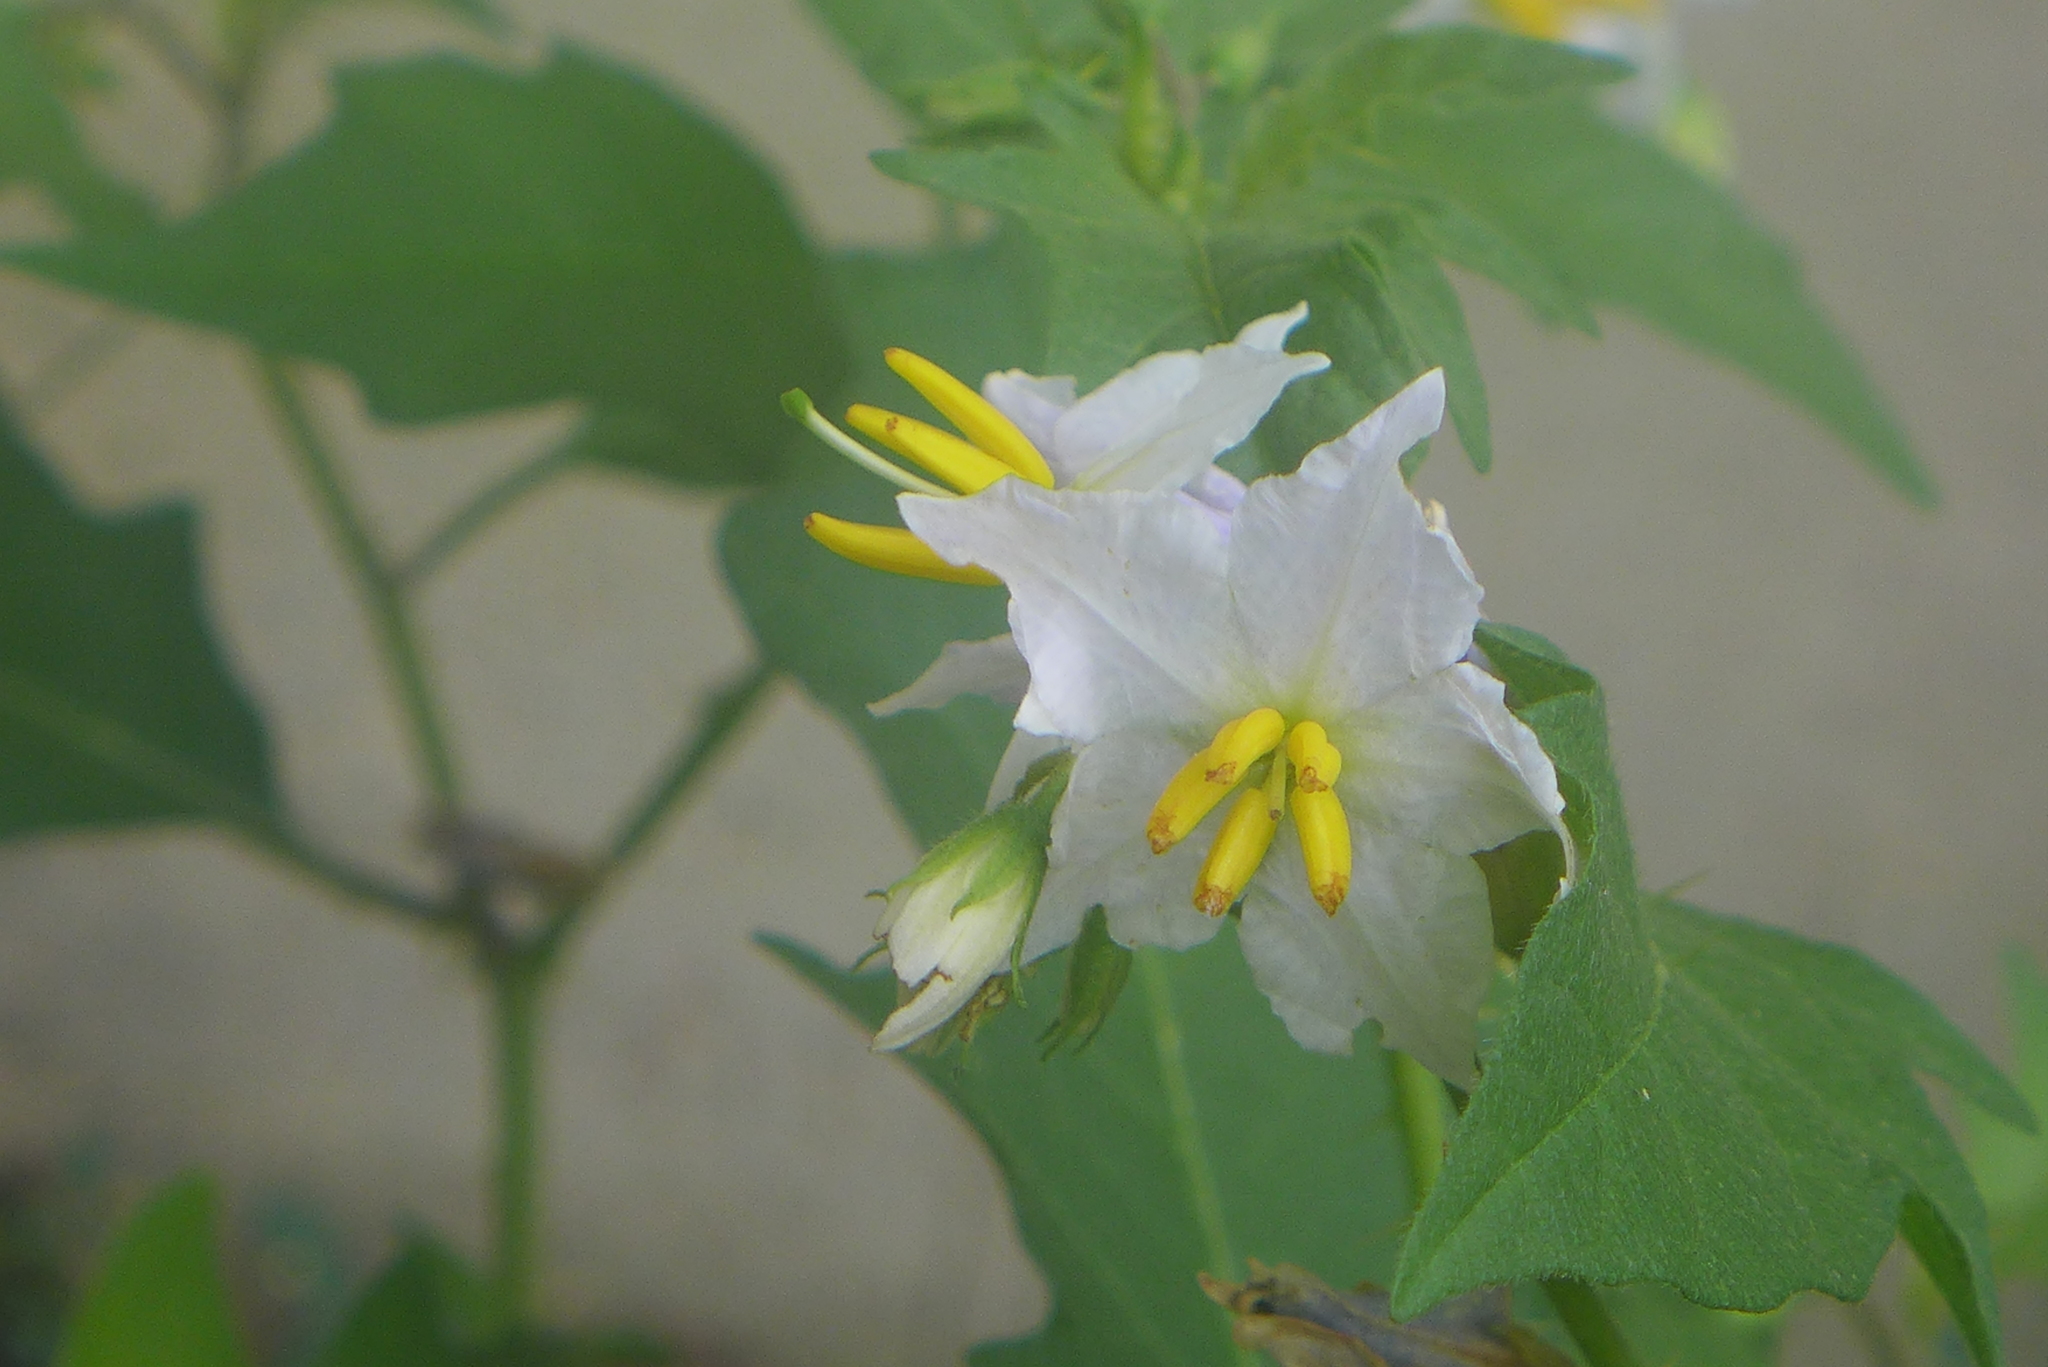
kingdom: Plantae
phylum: Tracheophyta
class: Magnoliopsida
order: Solanales
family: Solanaceae
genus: Solanum
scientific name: Solanum carolinense
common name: Horse-nettle
